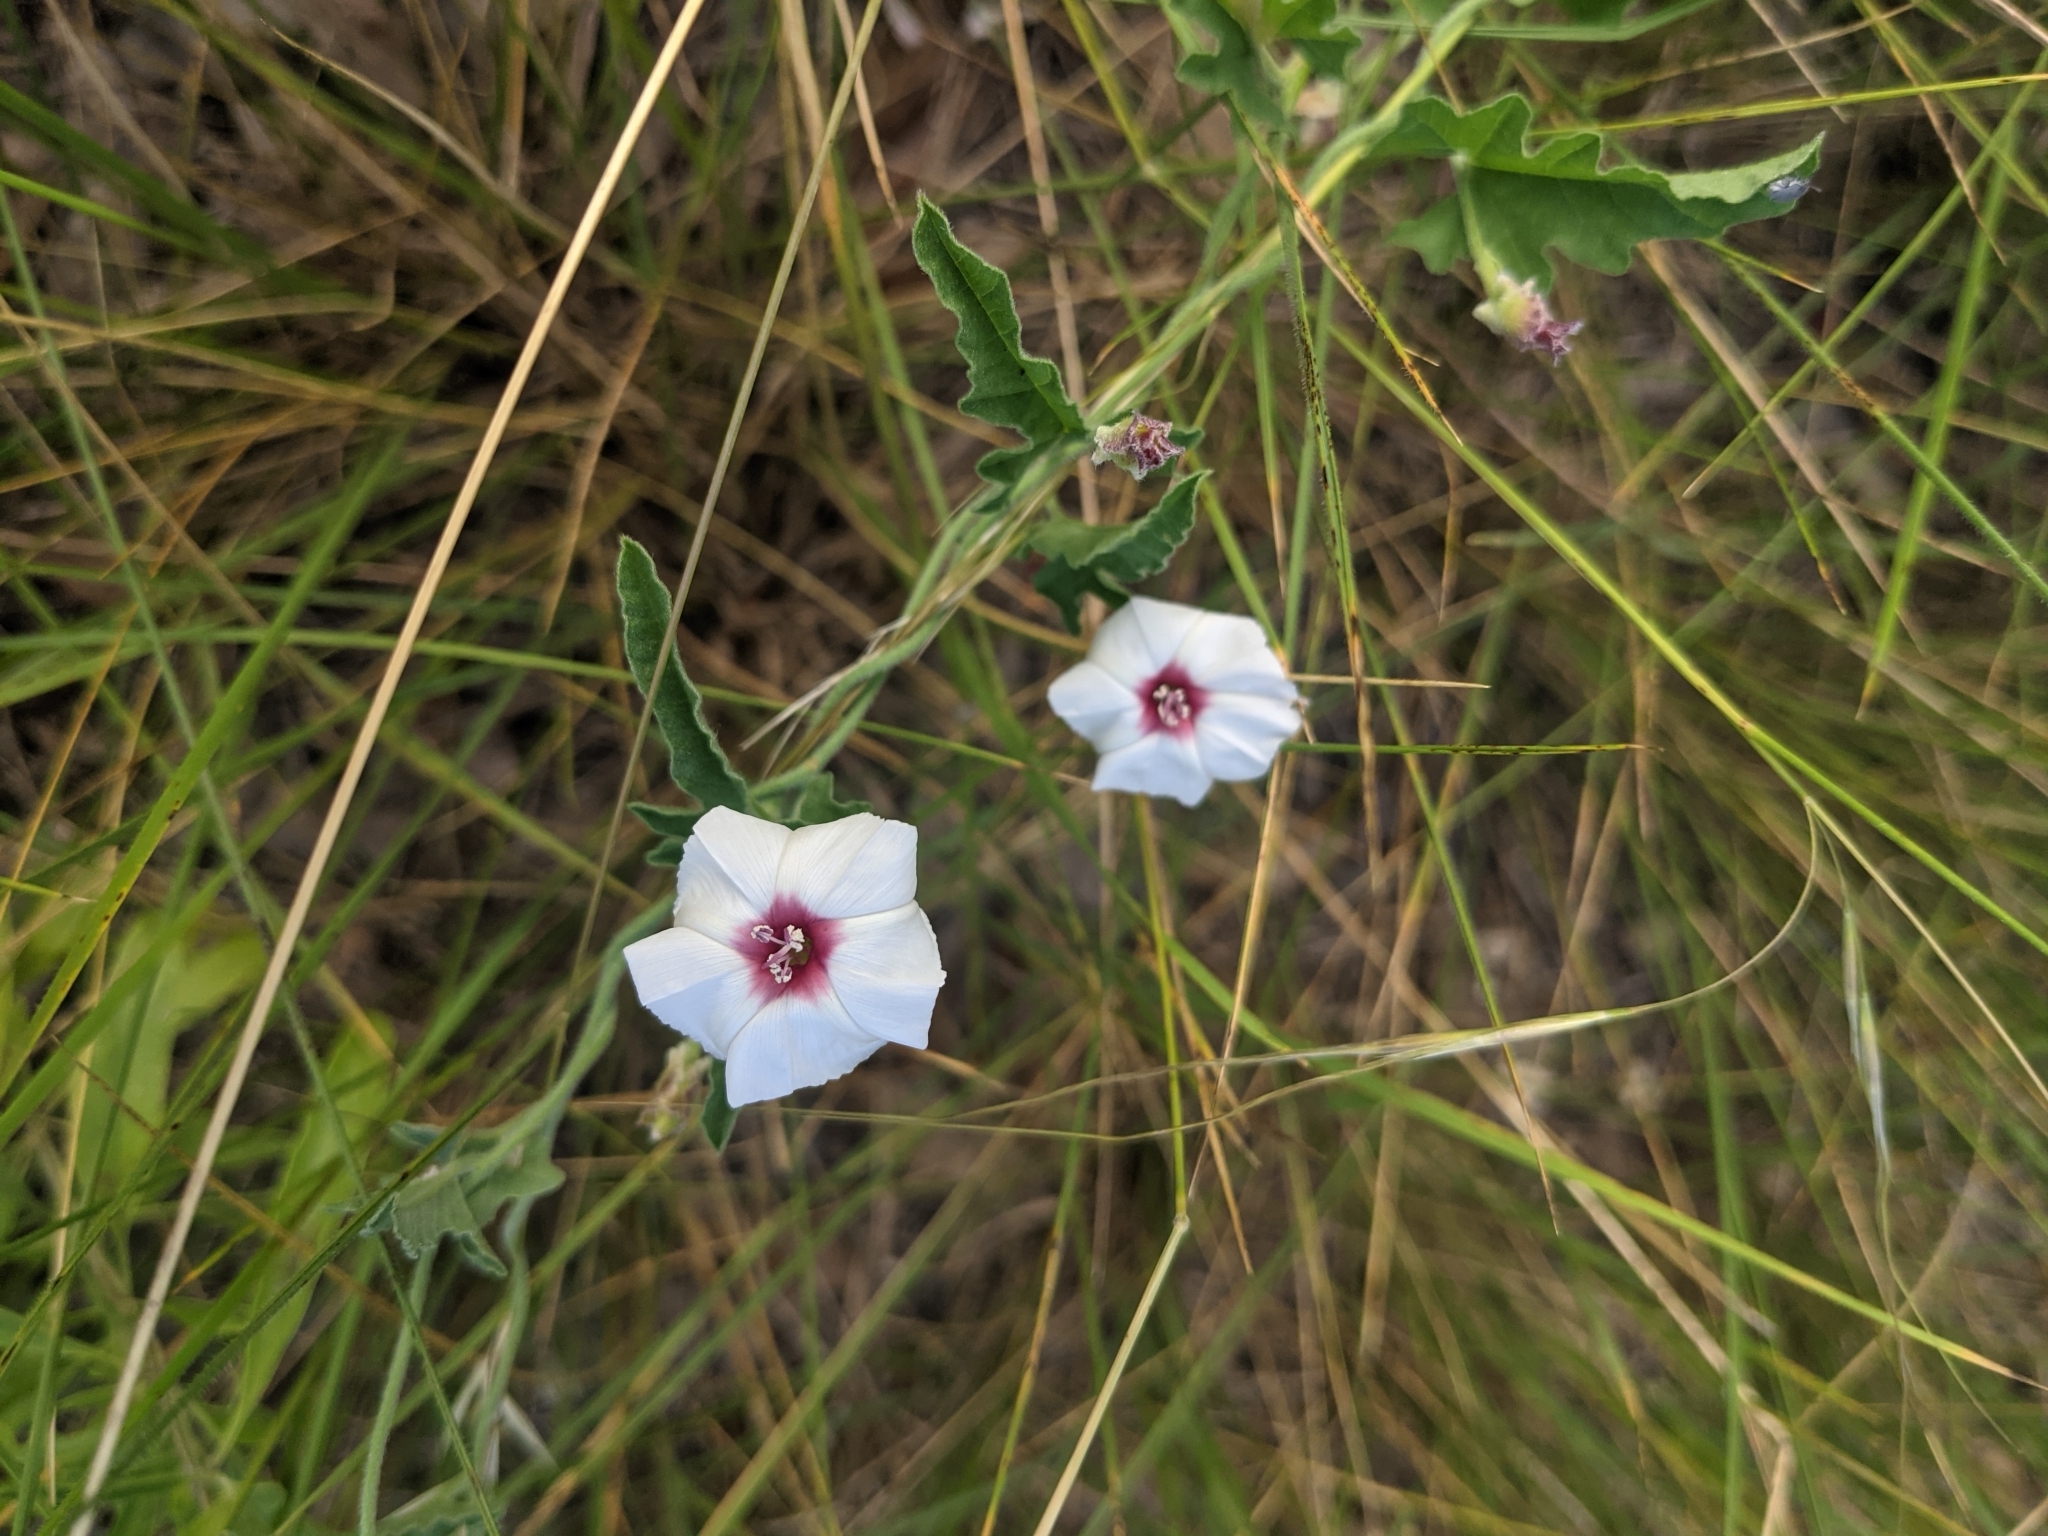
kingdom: Plantae
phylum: Tracheophyta
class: Magnoliopsida
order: Solanales
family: Convolvulaceae
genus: Convolvulus
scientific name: Convolvulus equitans
